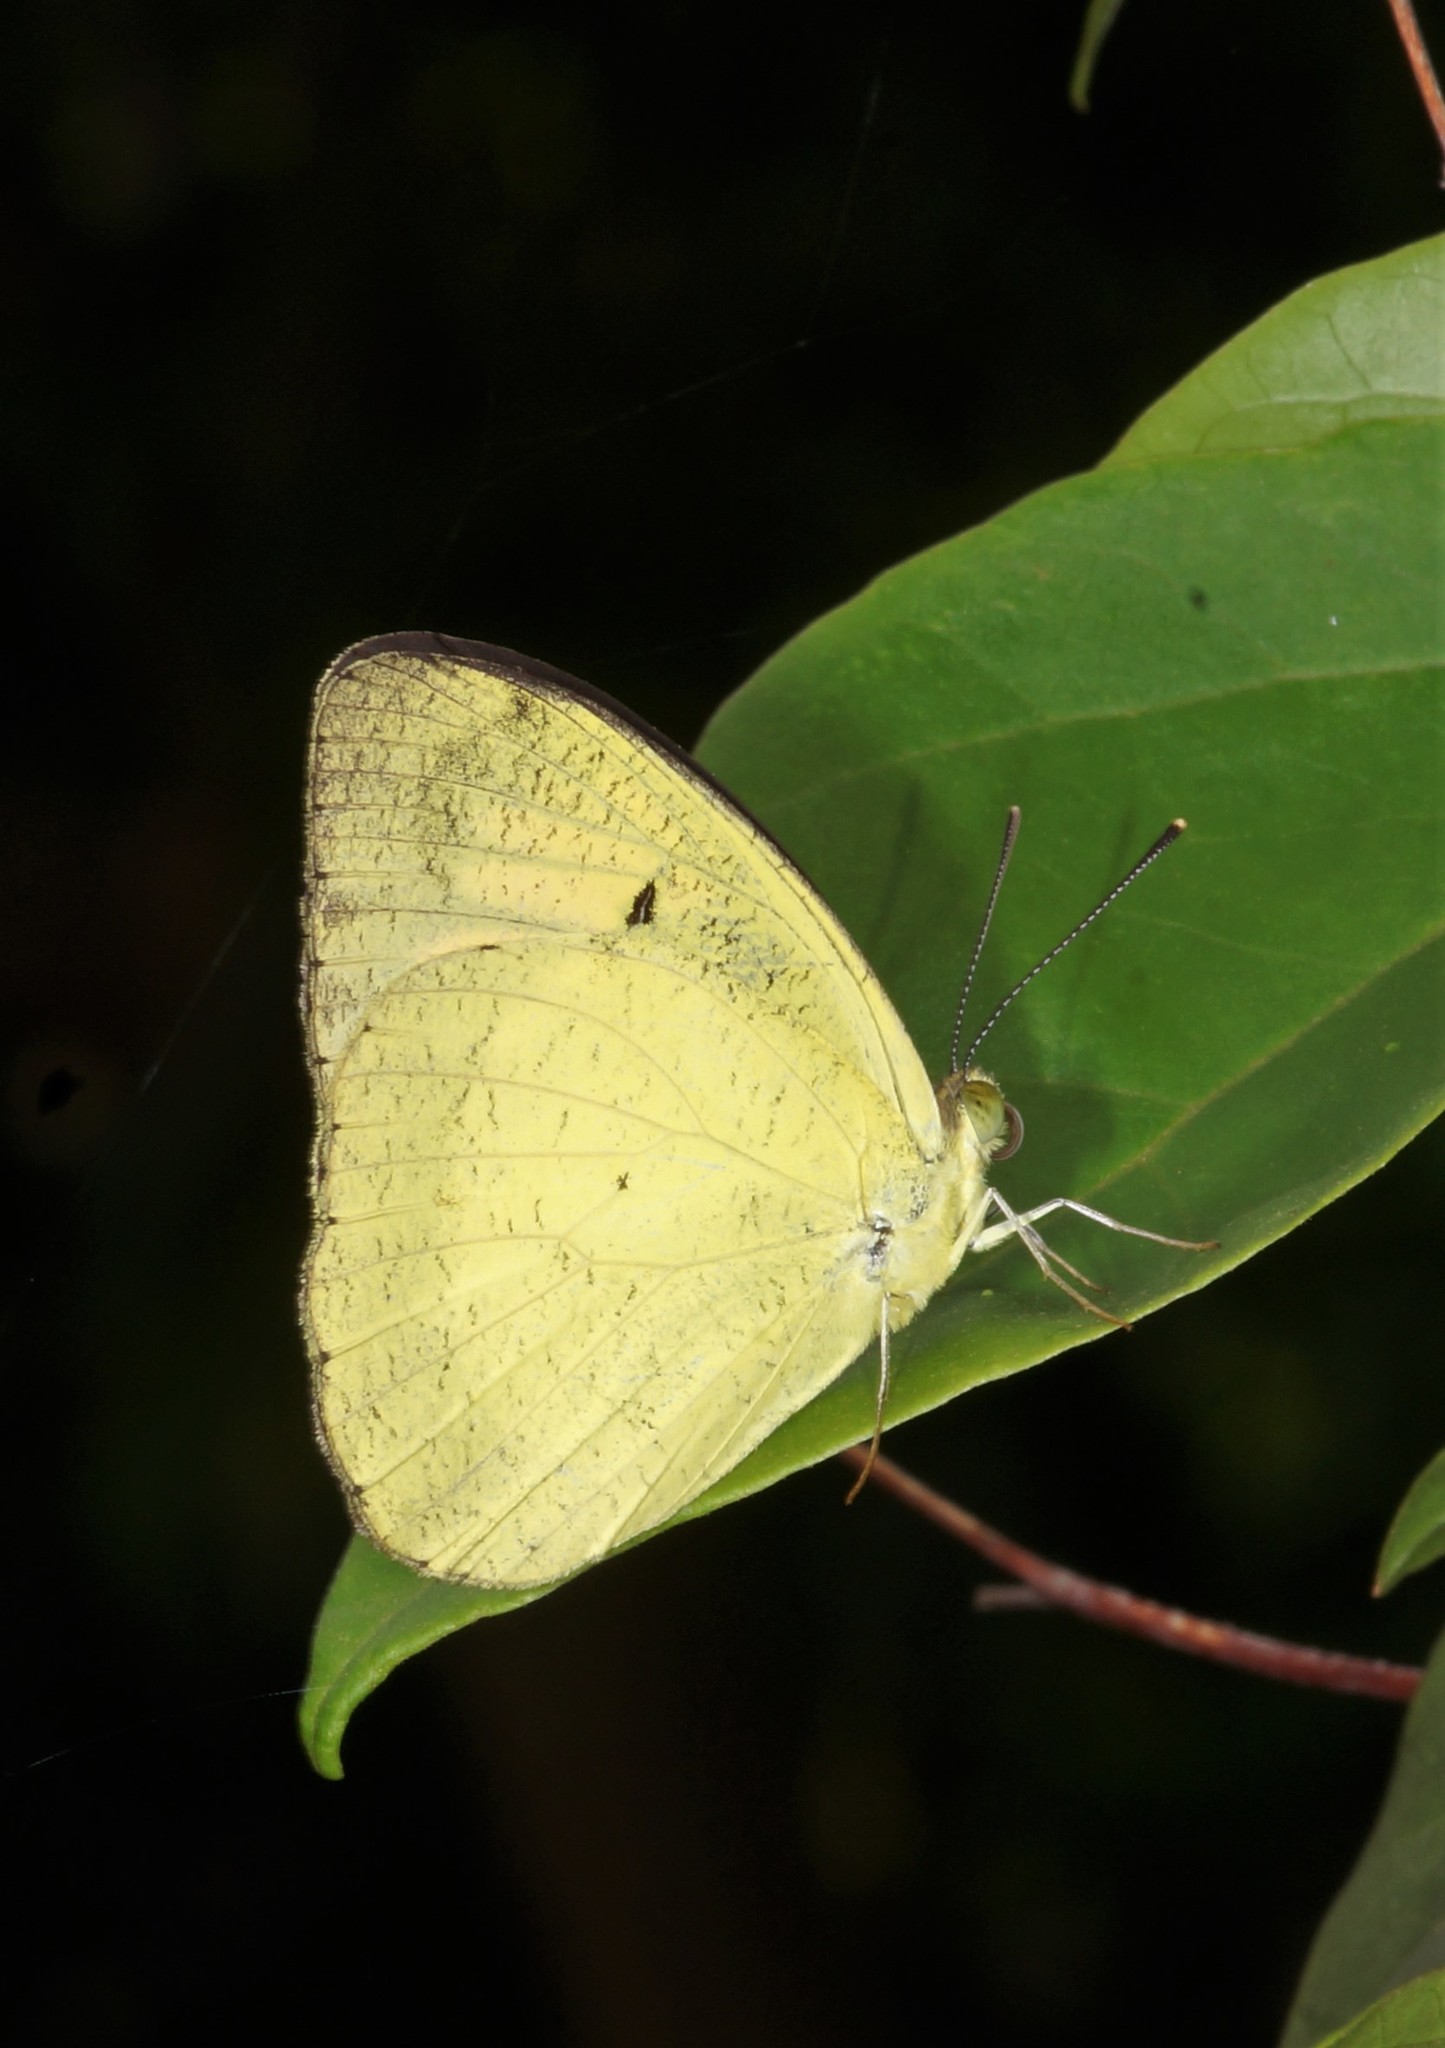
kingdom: Animalia
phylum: Arthropoda
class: Insecta
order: Lepidoptera
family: Pieridae
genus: Ixias
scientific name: Ixias pyrene
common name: Yellow orange tip
